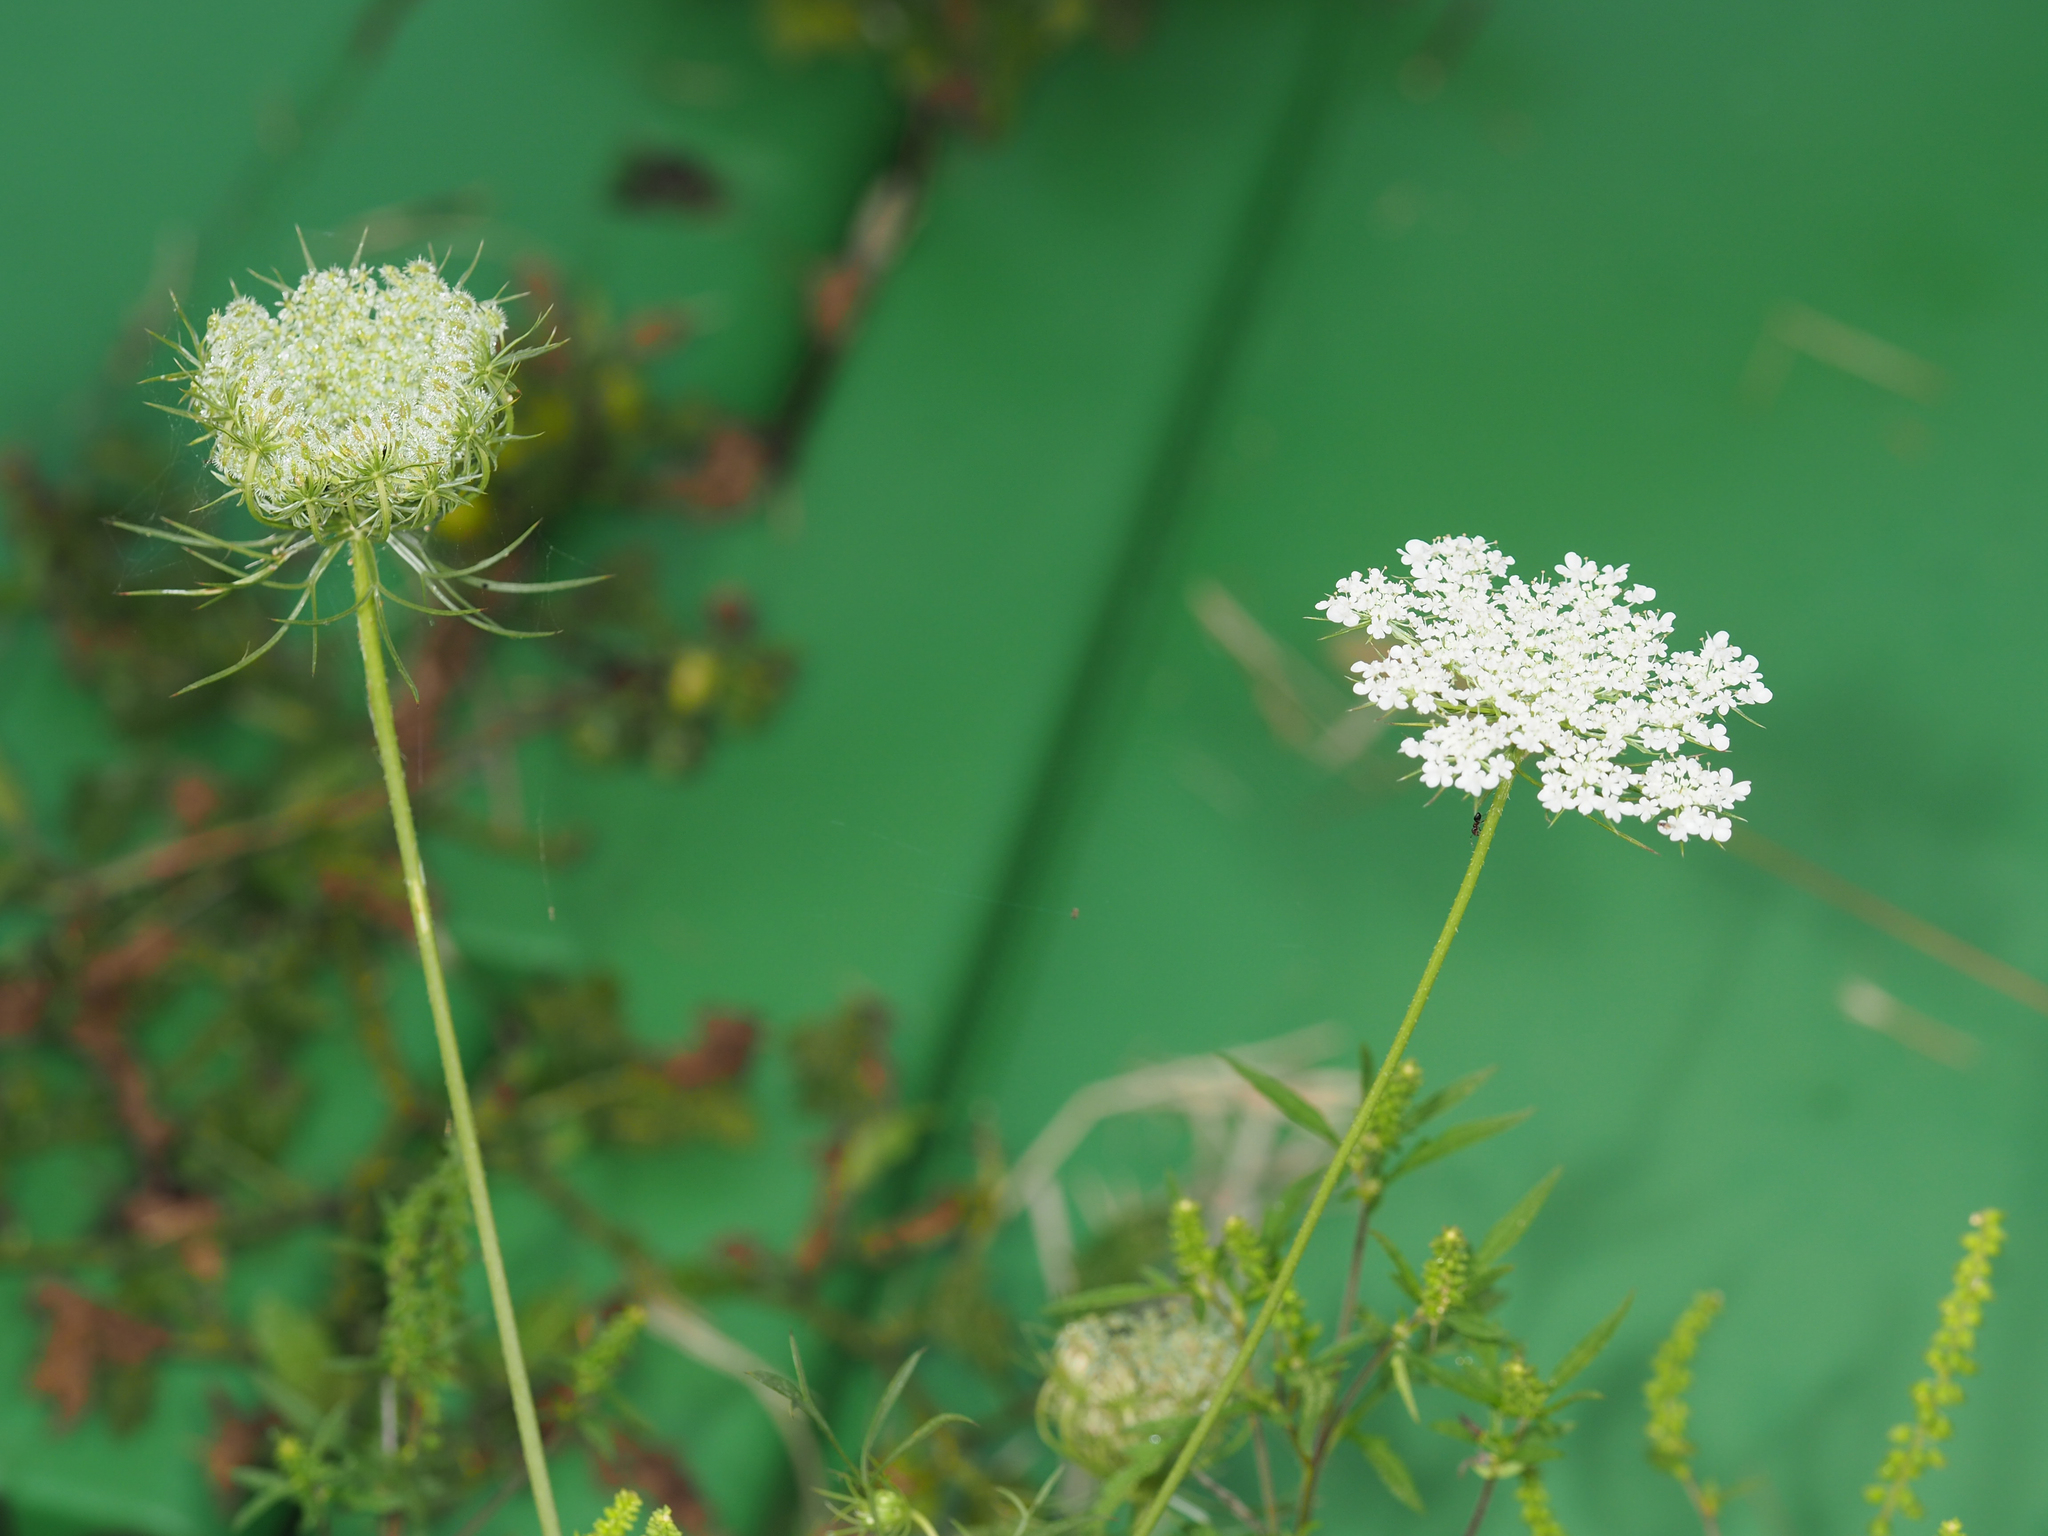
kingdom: Plantae
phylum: Tracheophyta
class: Magnoliopsida
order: Apiales
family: Apiaceae
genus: Daucus
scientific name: Daucus carota
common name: Wild carrot
